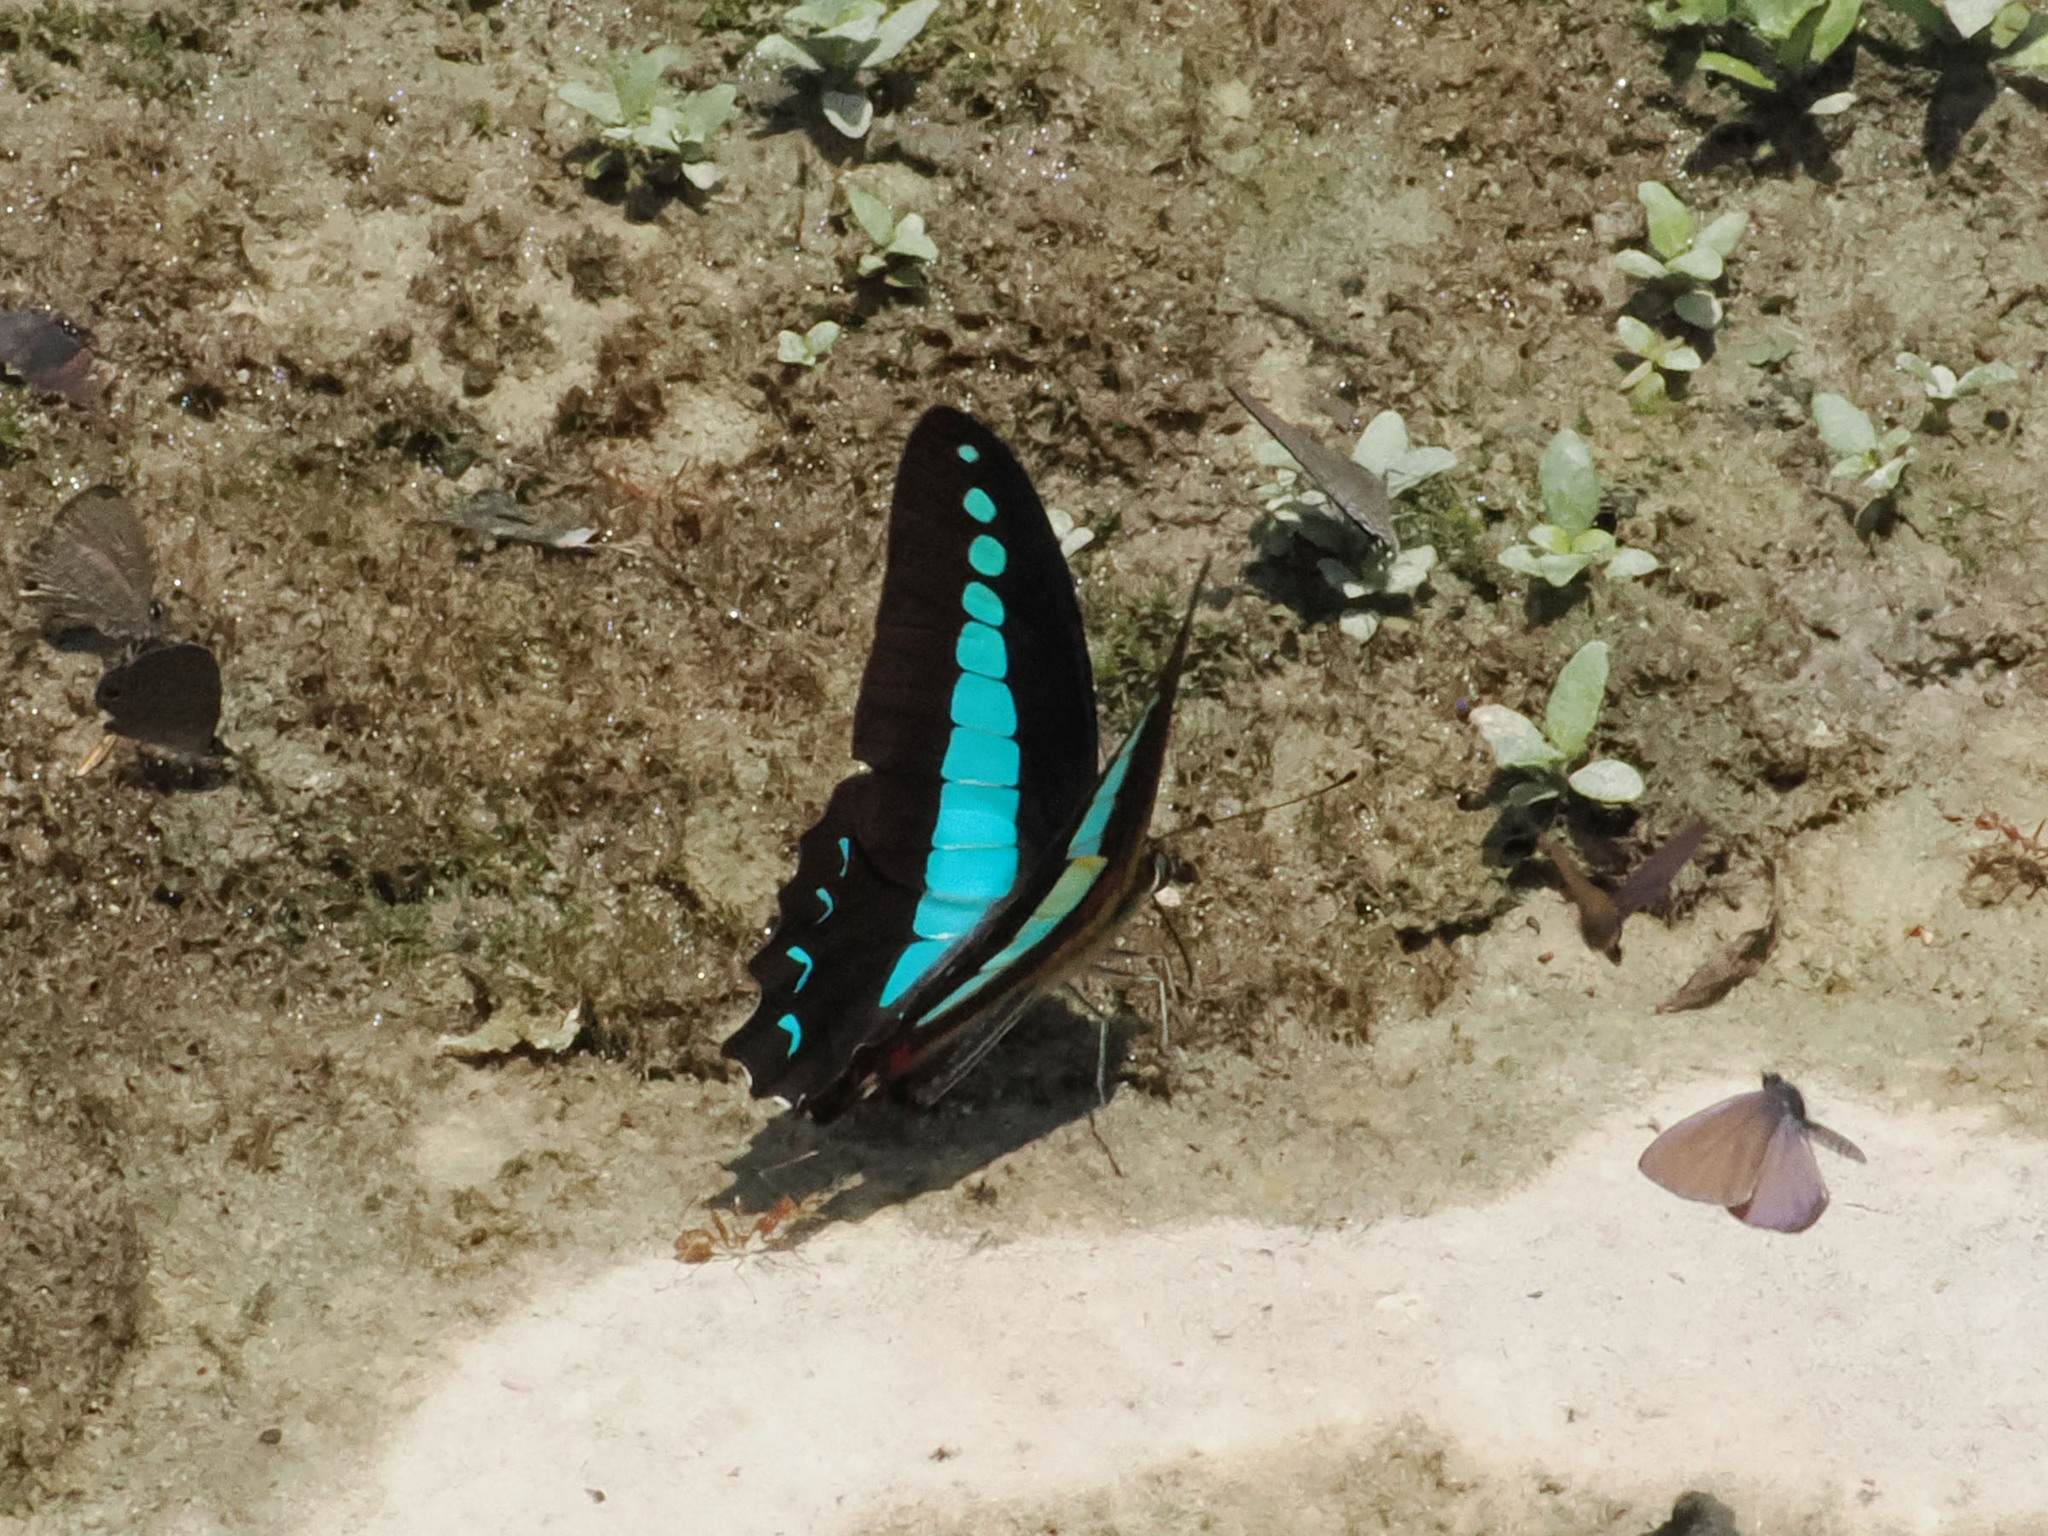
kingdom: Animalia
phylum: Arthropoda
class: Insecta
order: Lepidoptera
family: Papilionidae
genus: Graphium
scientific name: Graphium
